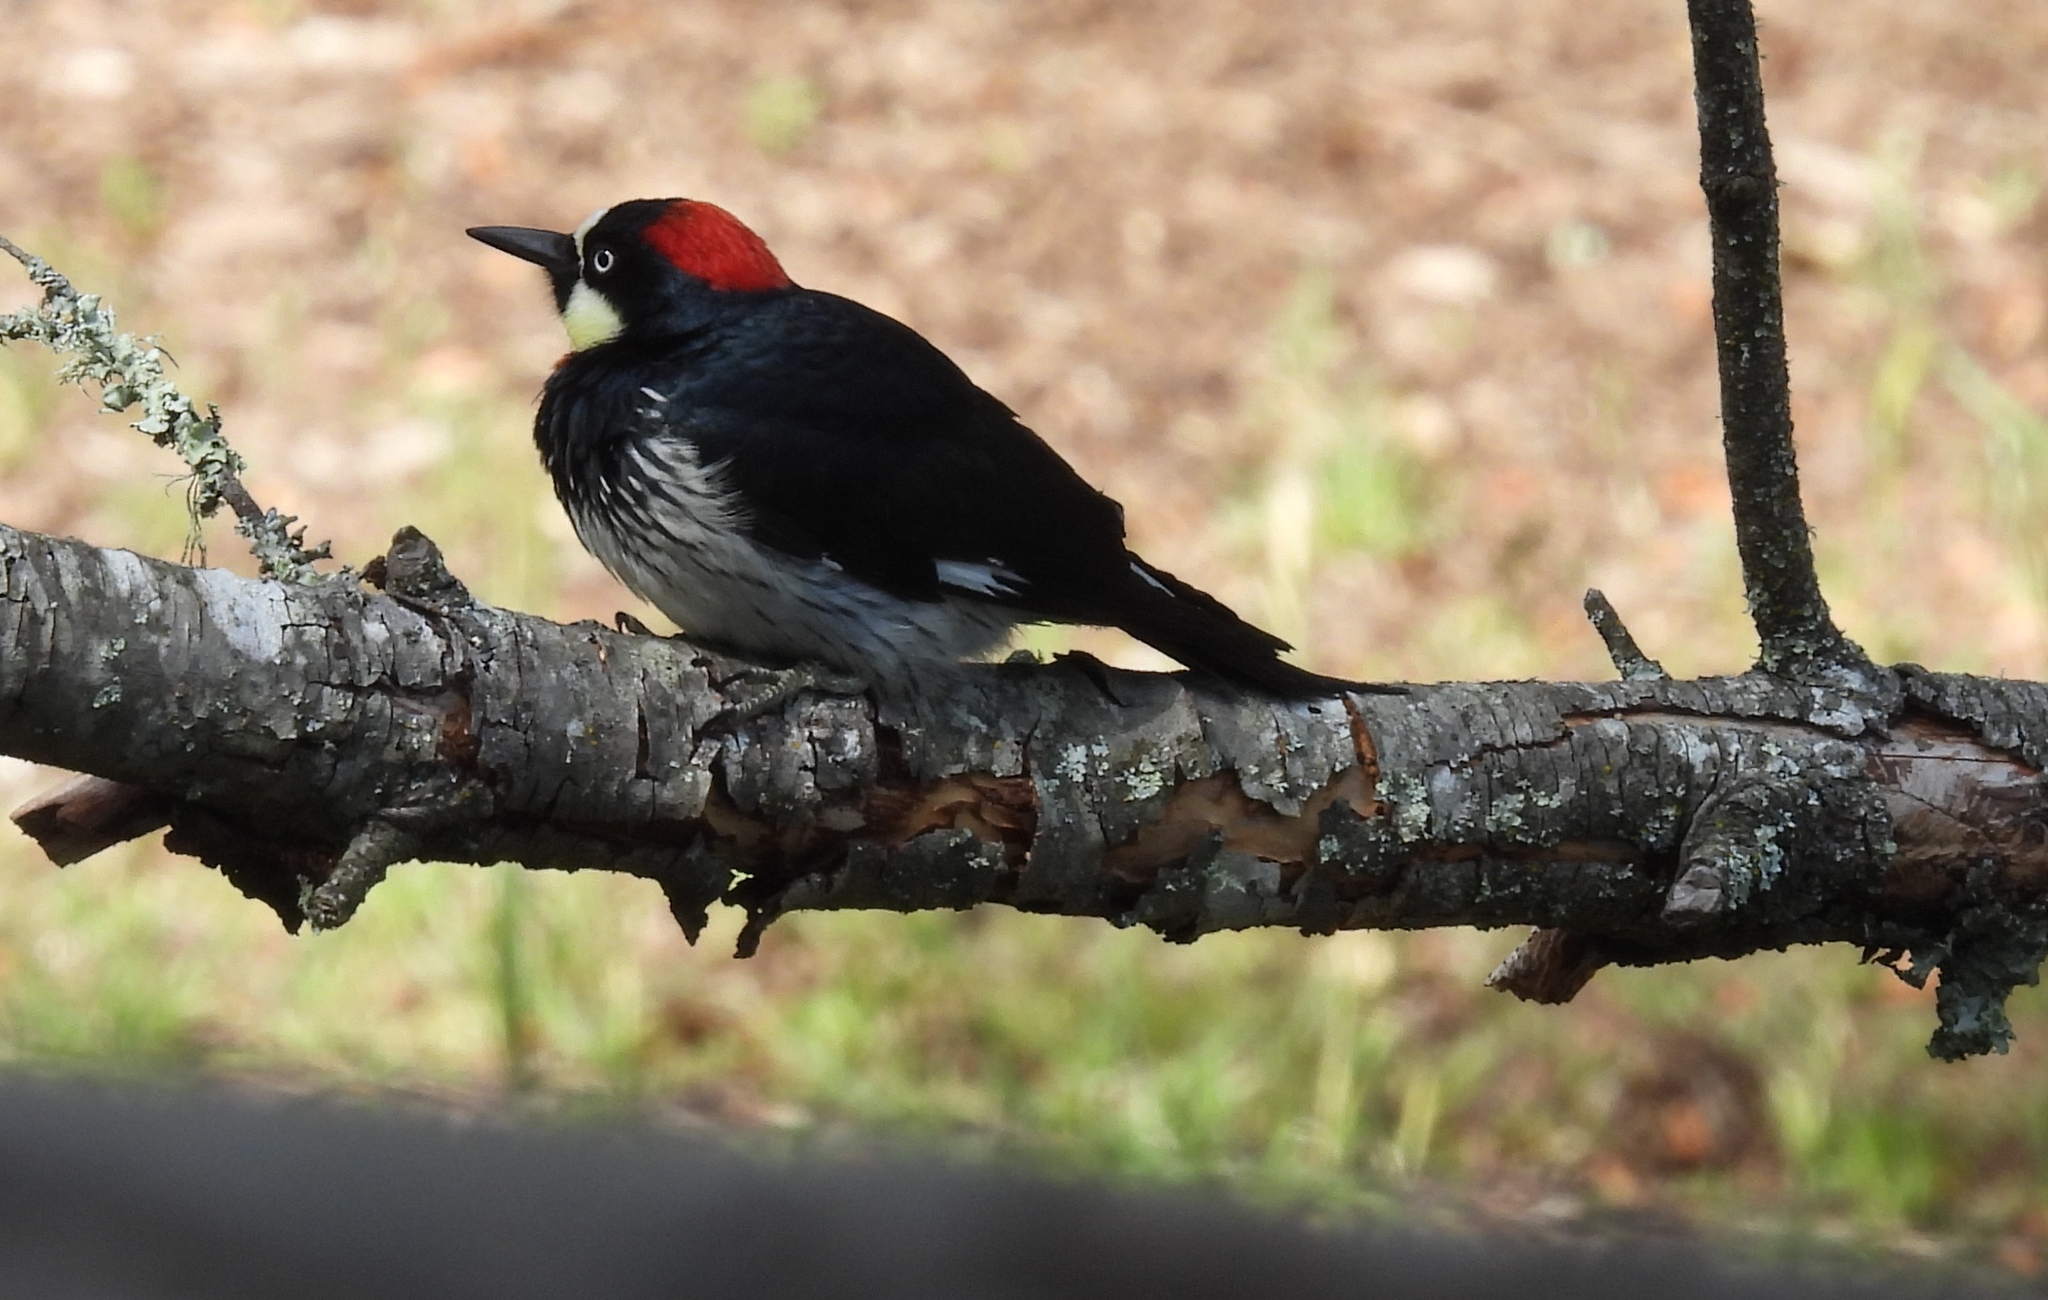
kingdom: Animalia
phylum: Chordata
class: Aves
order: Piciformes
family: Picidae
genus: Melanerpes
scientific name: Melanerpes formicivorus
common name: Acorn woodpecker
